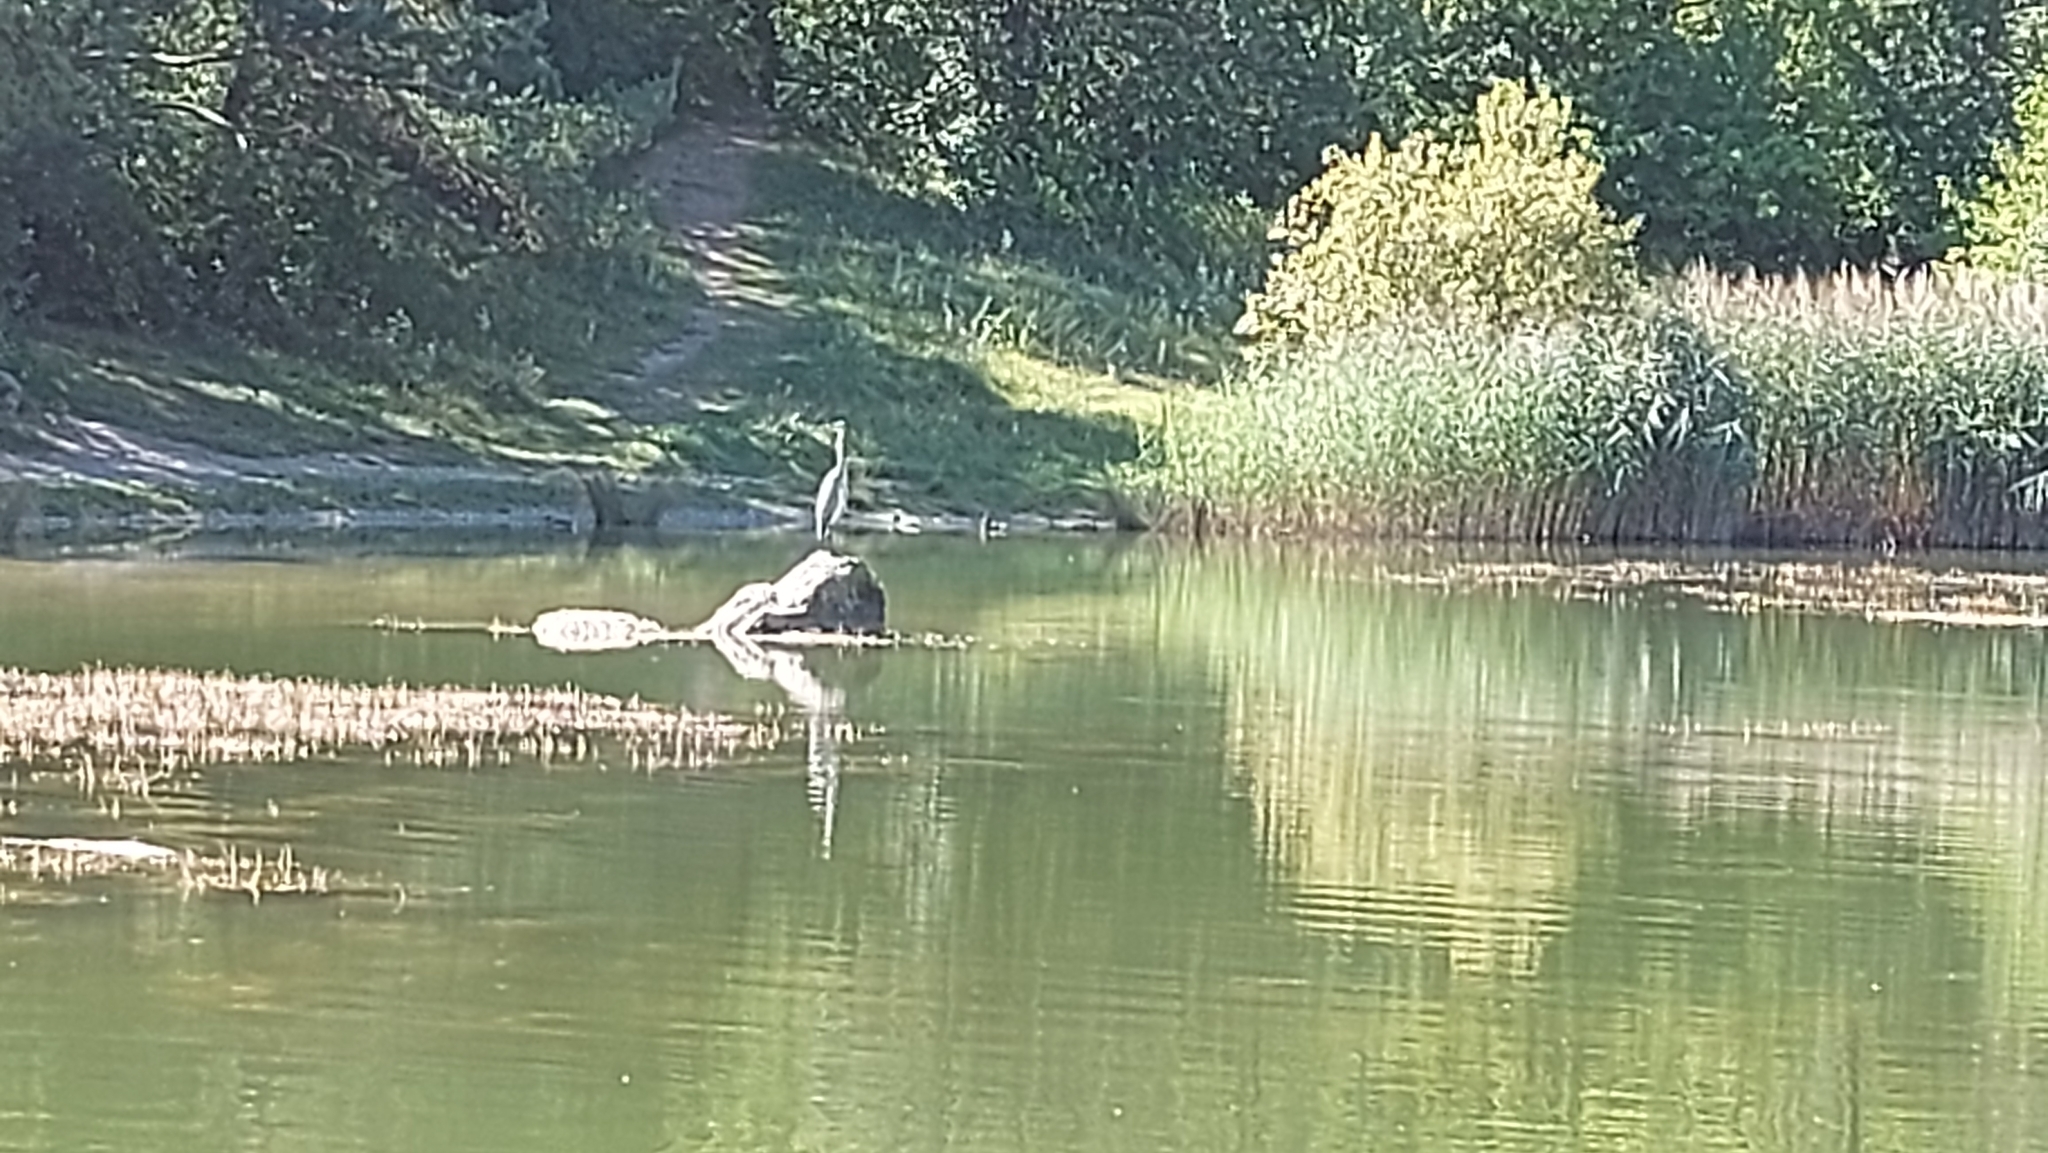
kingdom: Animalia
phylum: Chordata
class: Aves
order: Pelecaniformes
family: Ardeidae
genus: Ardea
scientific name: Ardea cinerea
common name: Grey heron
